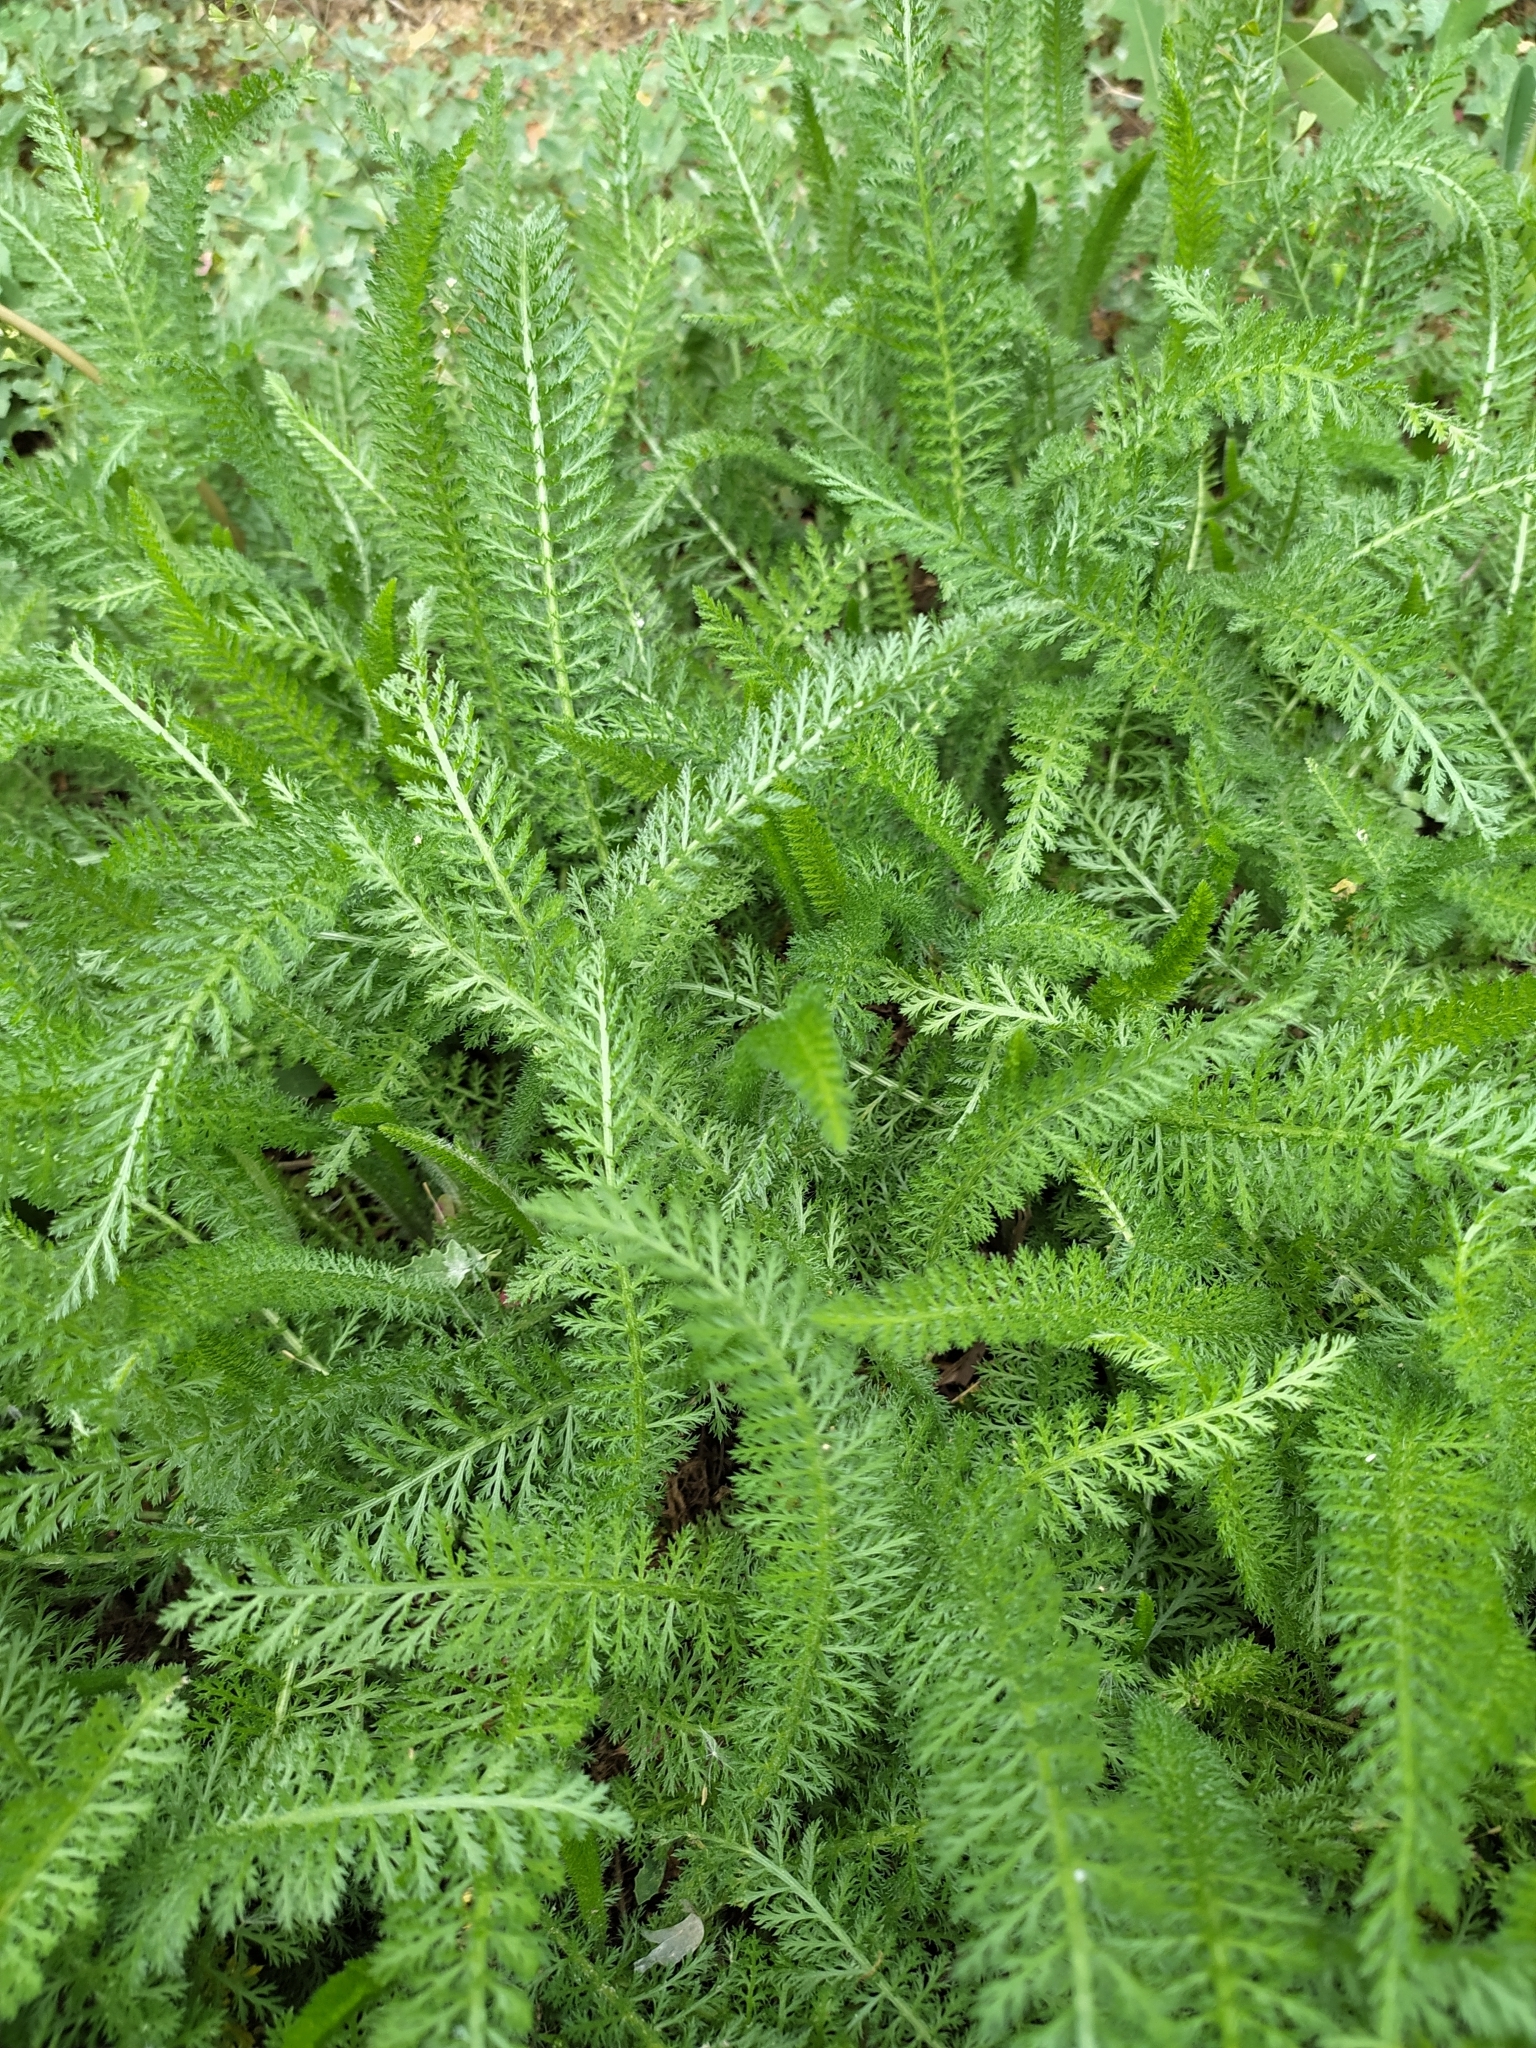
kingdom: Plantae
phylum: Tracheophyta
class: Magnoliopsida
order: Asterales
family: Asteraceae
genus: Achillea
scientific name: Achillea millefolium
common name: Yarrow
